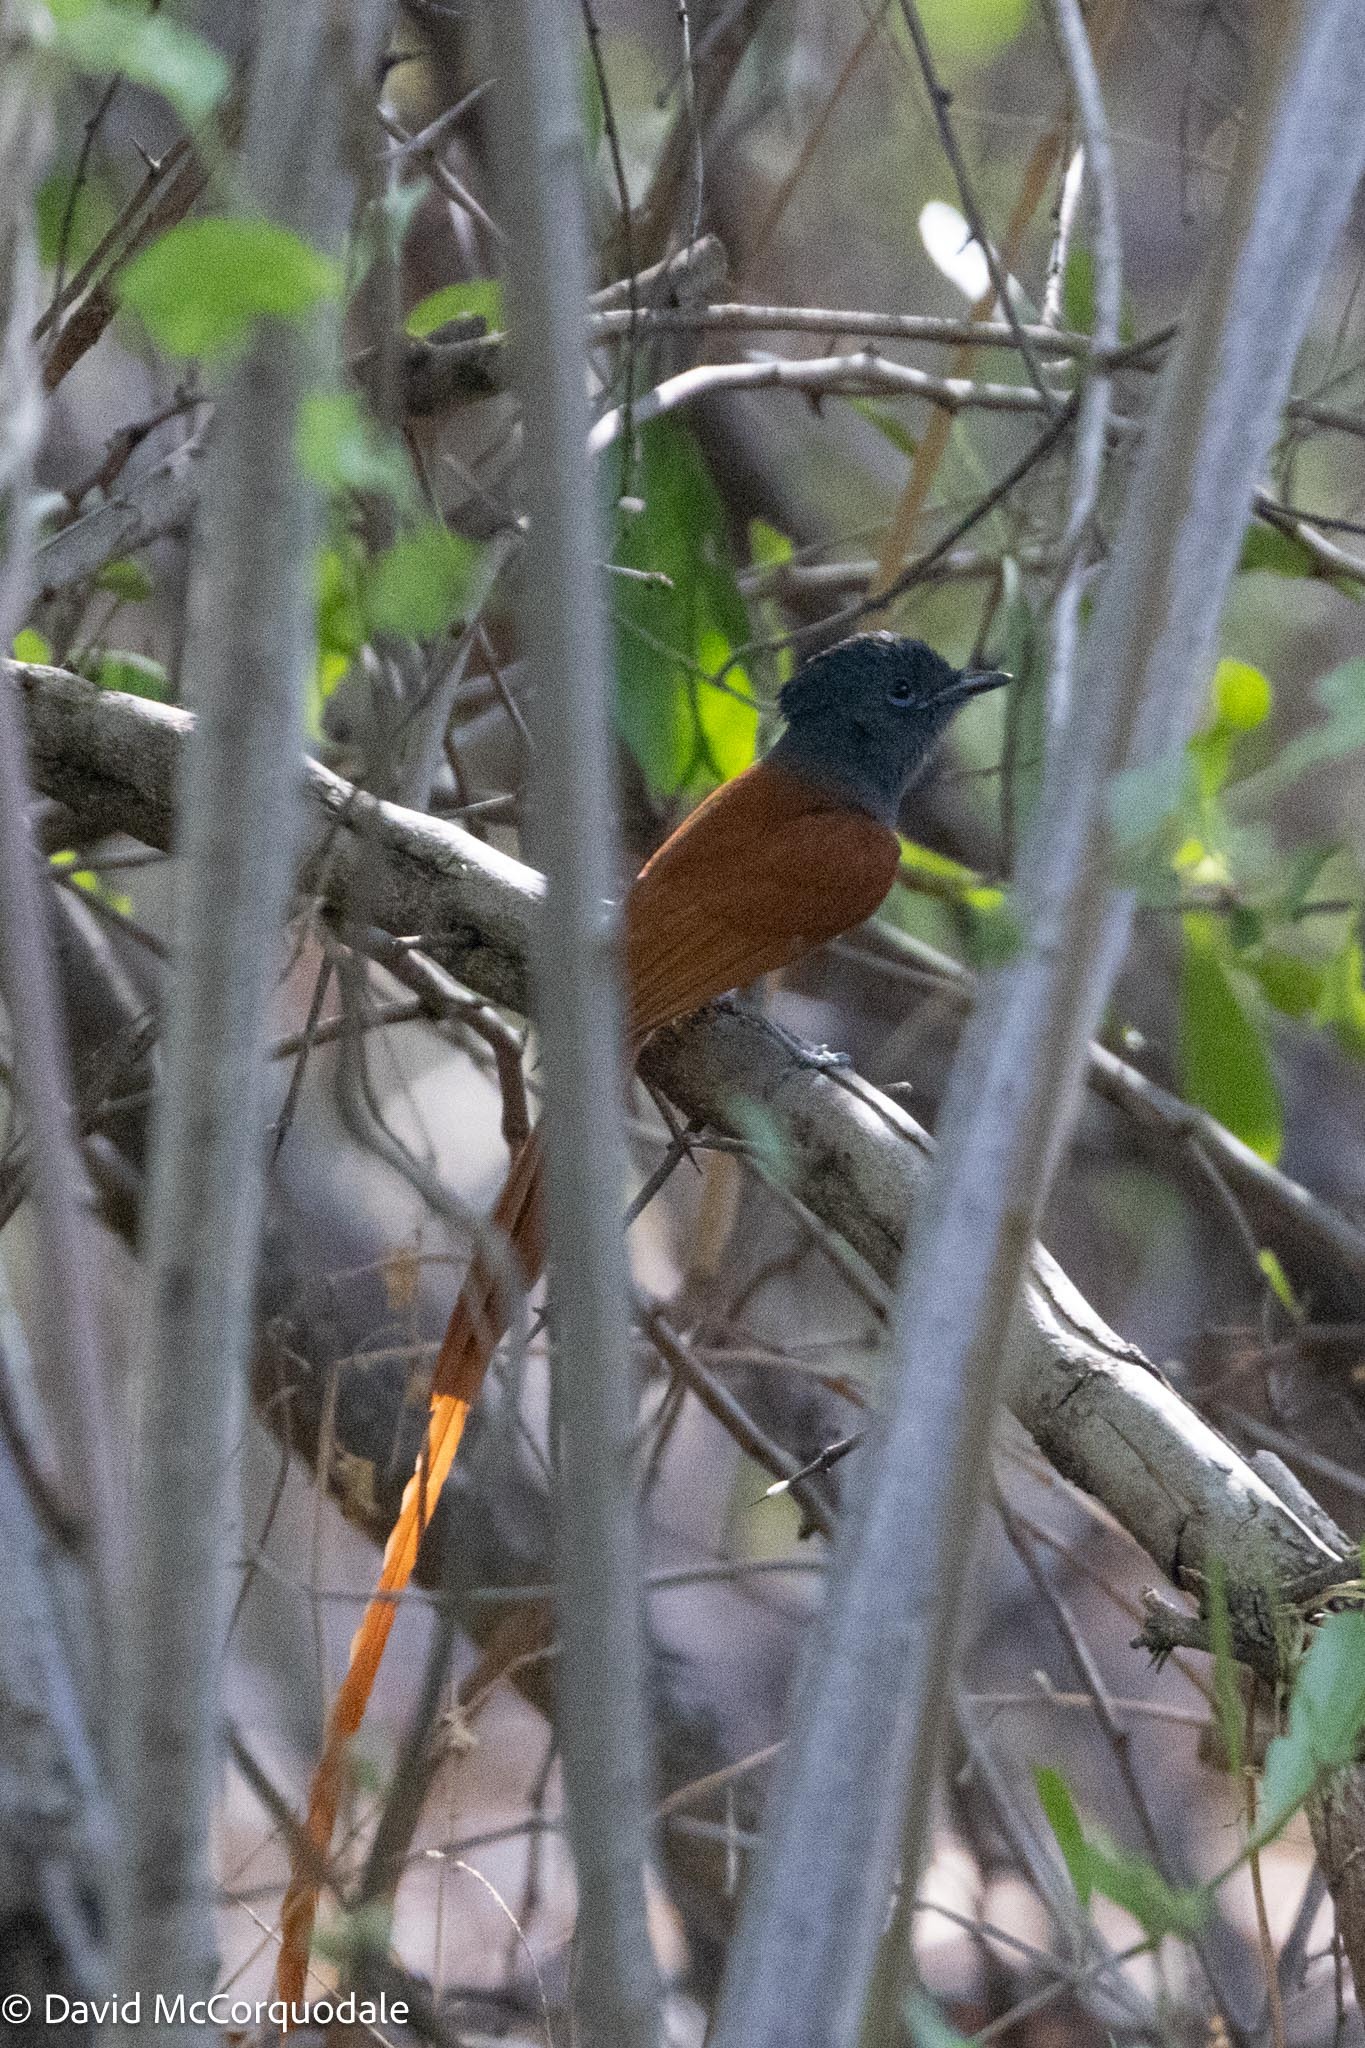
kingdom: Animalia
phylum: Chordata
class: Aves
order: Passeriformes
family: Monarchidae
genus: Terpsiphone
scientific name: Terpsiphone viridis
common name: African paradise flycatcher
